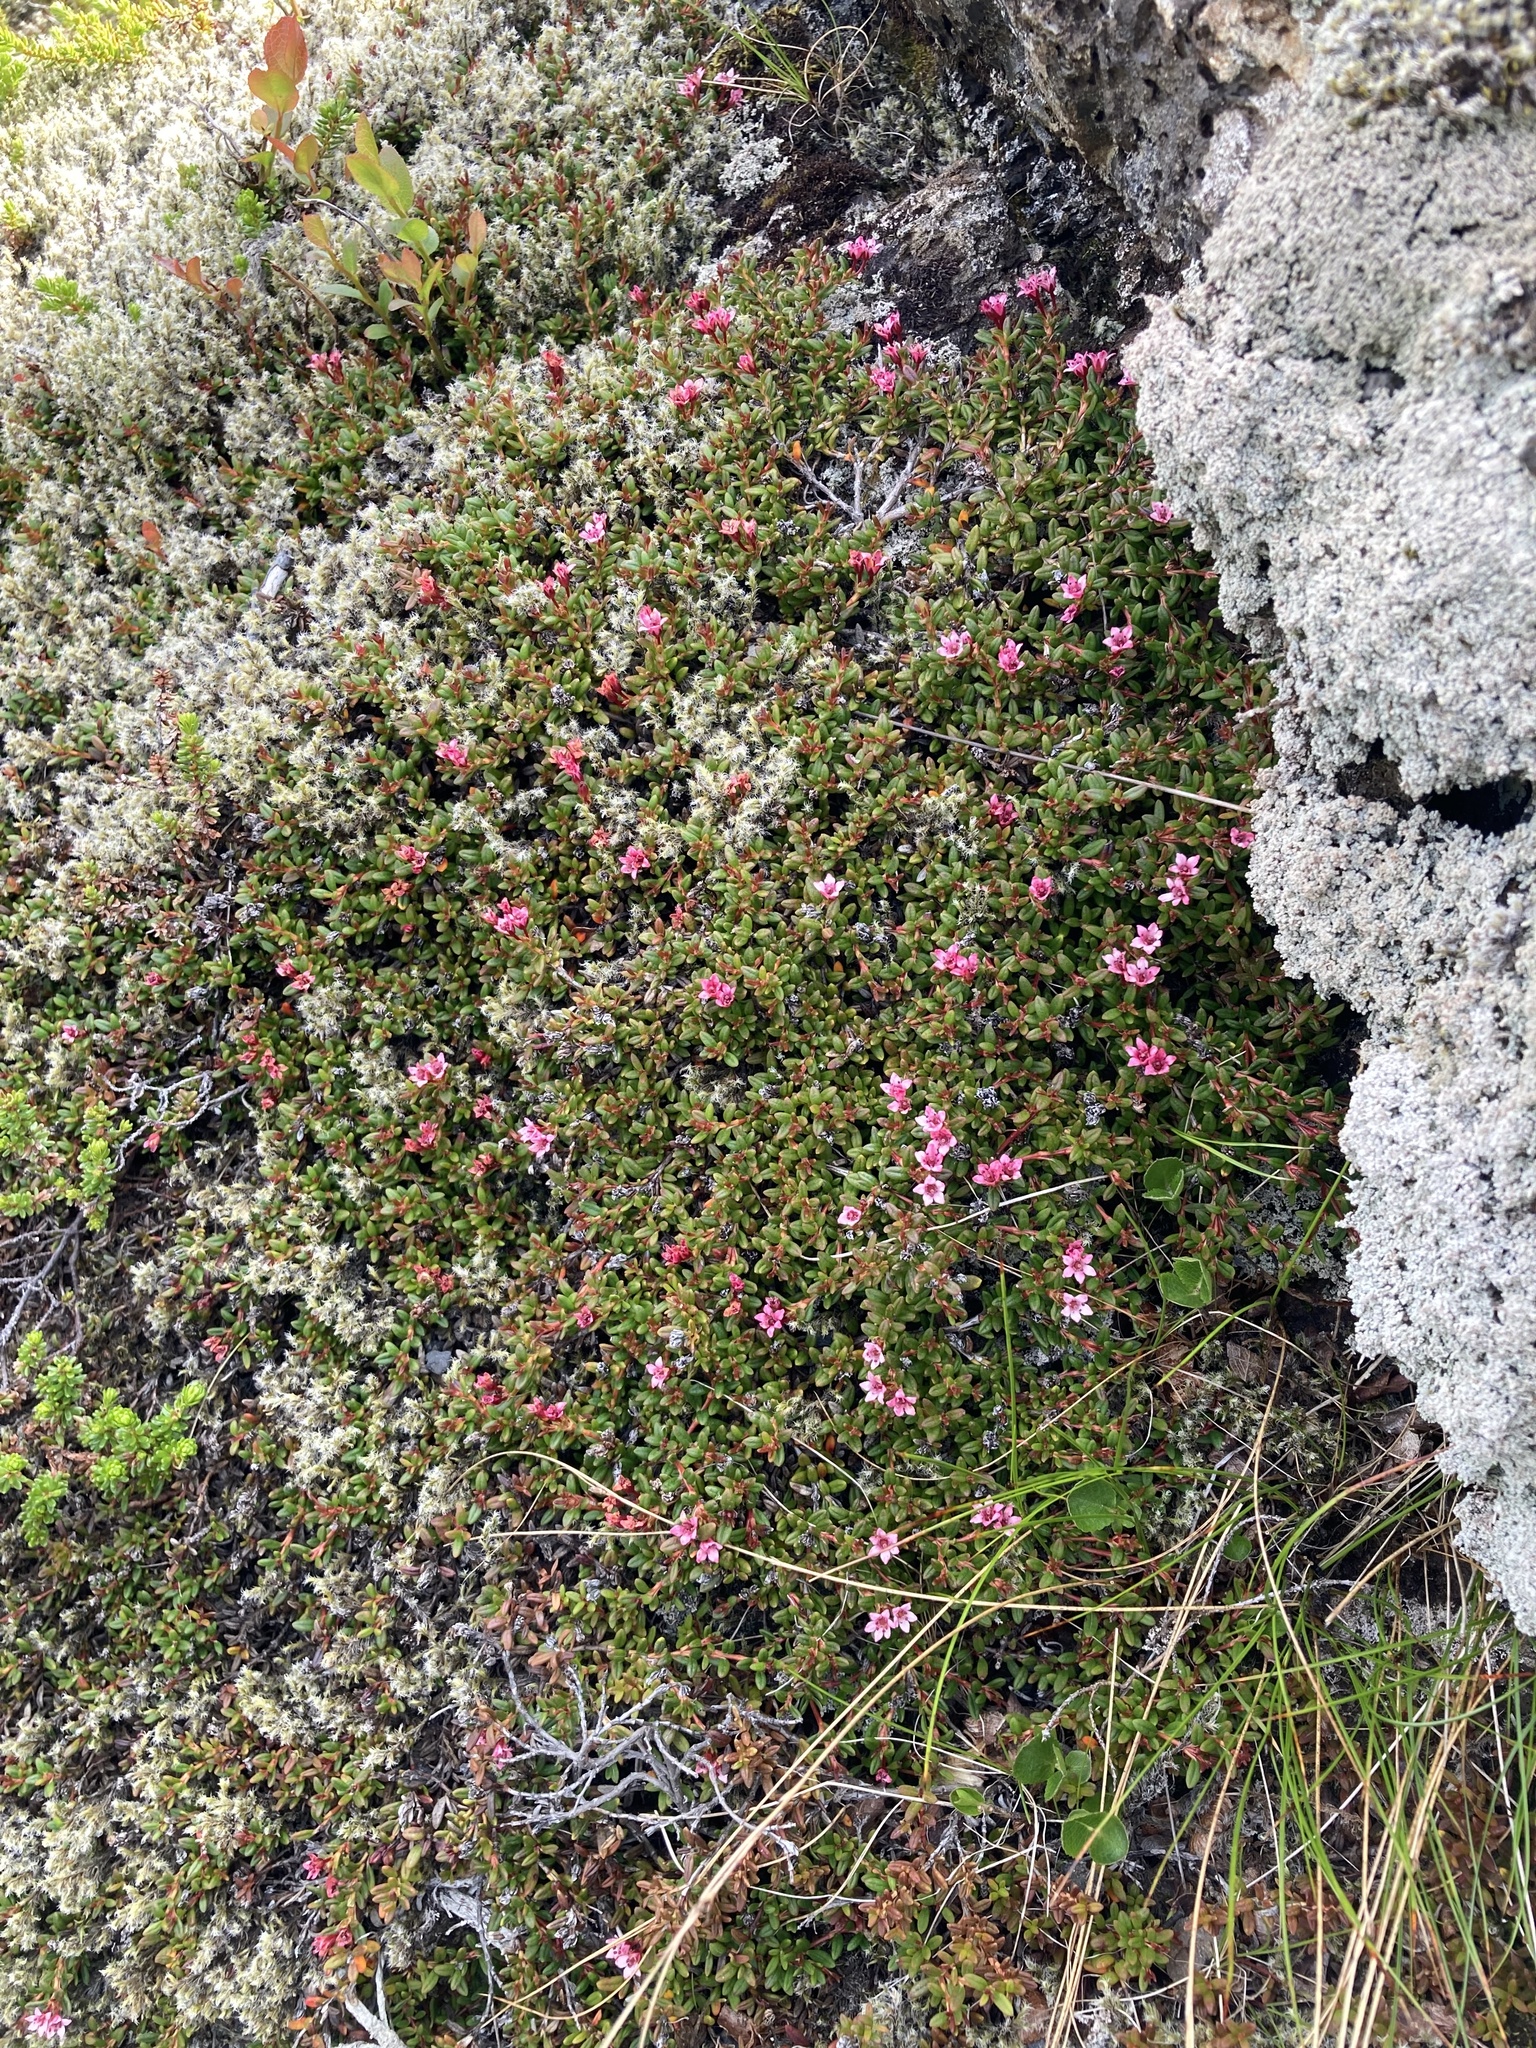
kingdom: Plantae
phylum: Tracheophyta
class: Magnoliopsida
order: Ericales
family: Ericaceae
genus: Kalmia
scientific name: Kalmia procumbens
